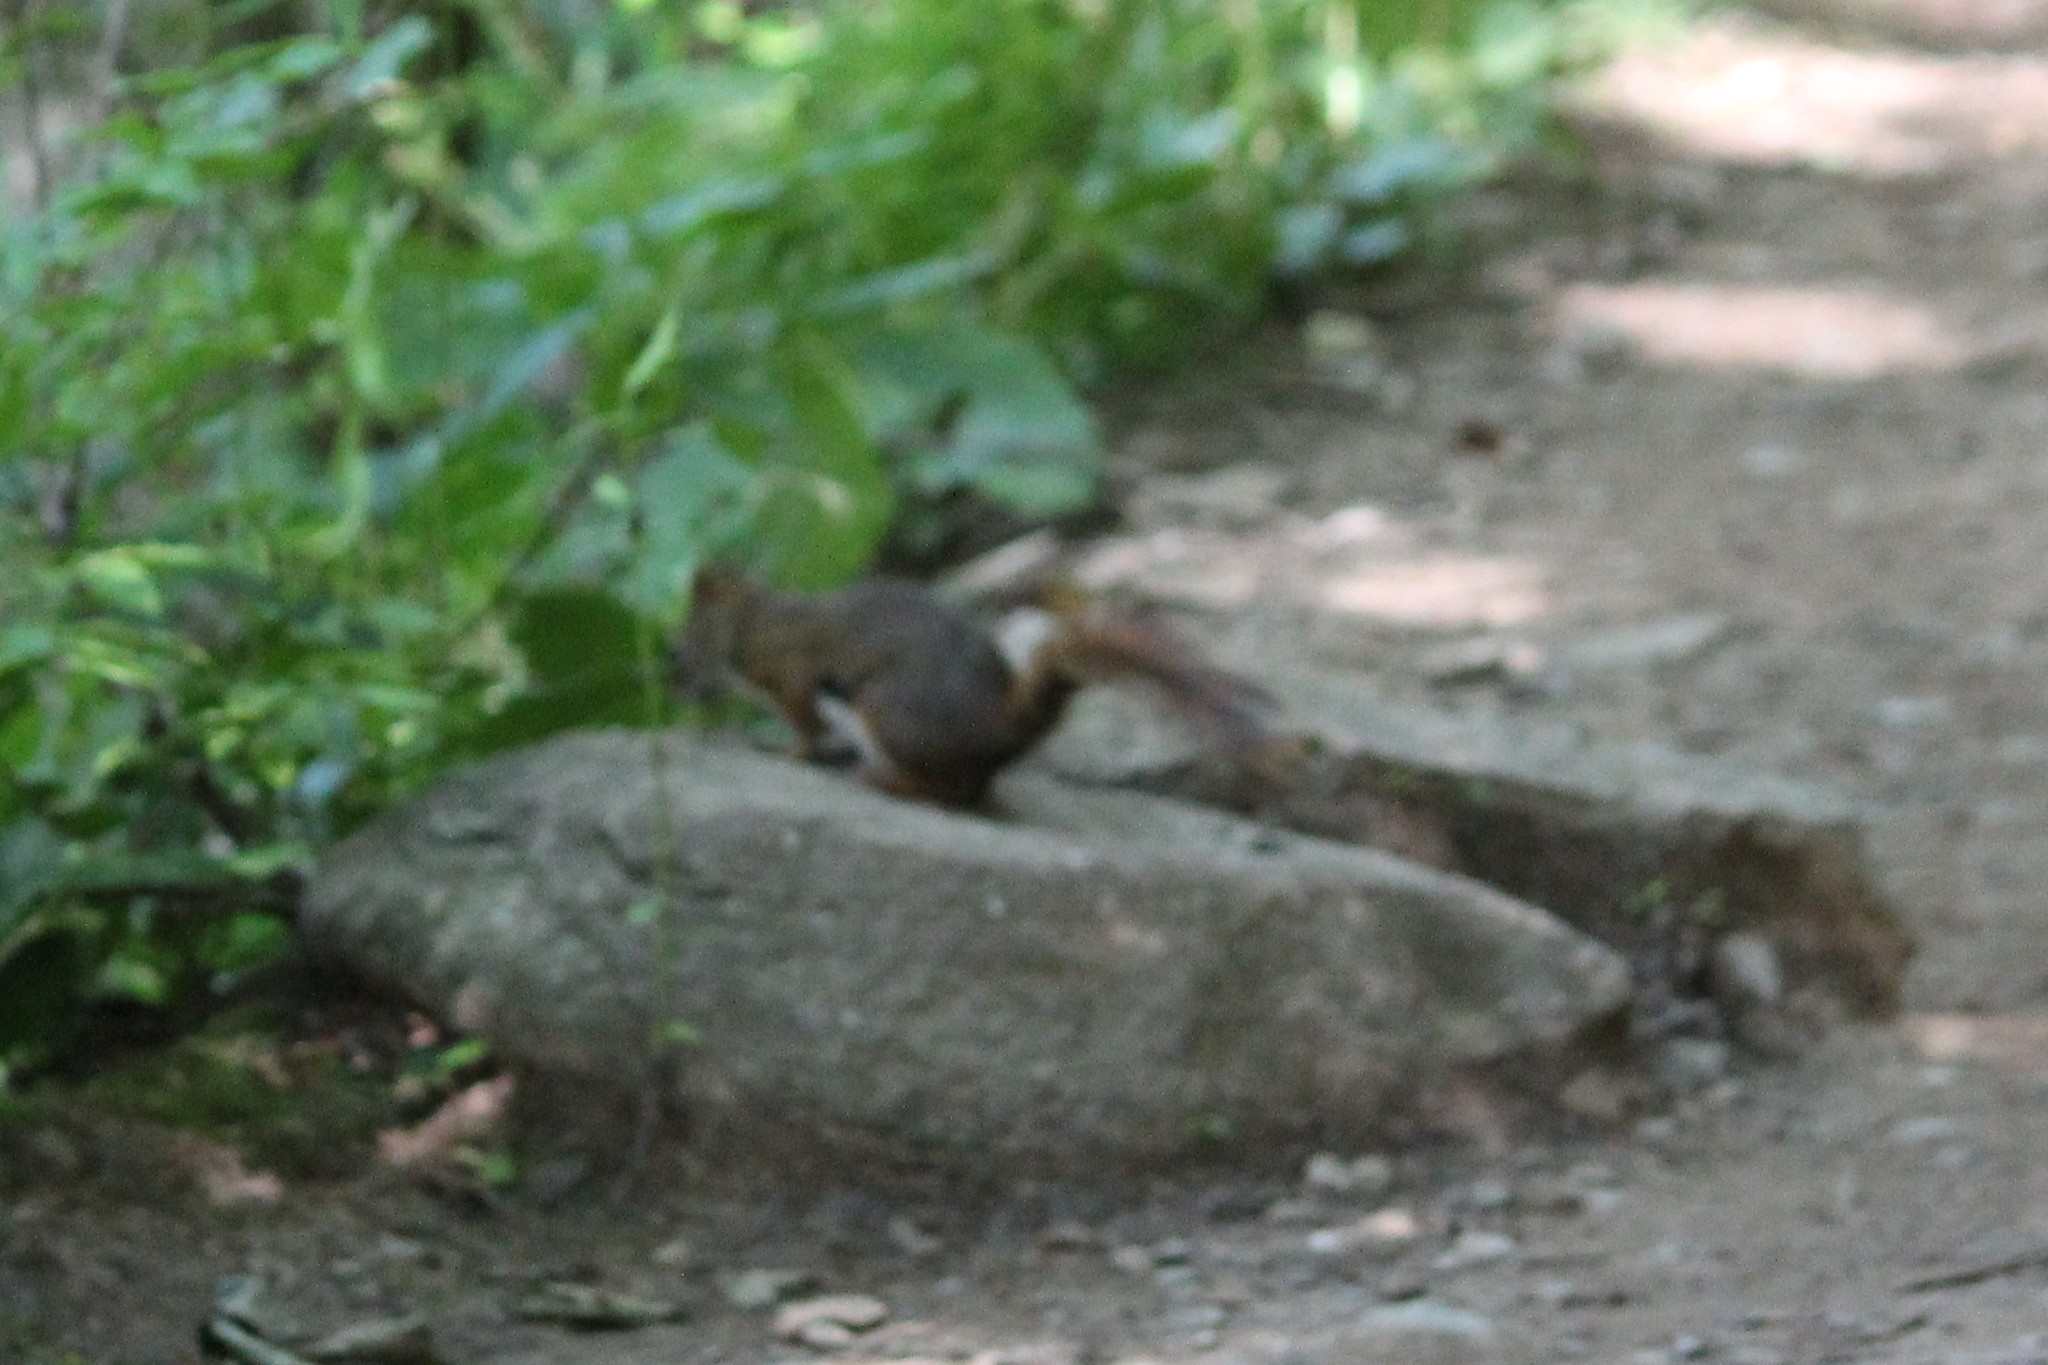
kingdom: Animalia
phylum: Chordata
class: Mammalia
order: Rodentia
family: Sciuridae
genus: Tamiasciurus
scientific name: Tamiasciurus hudsonicus
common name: Red squirrel
